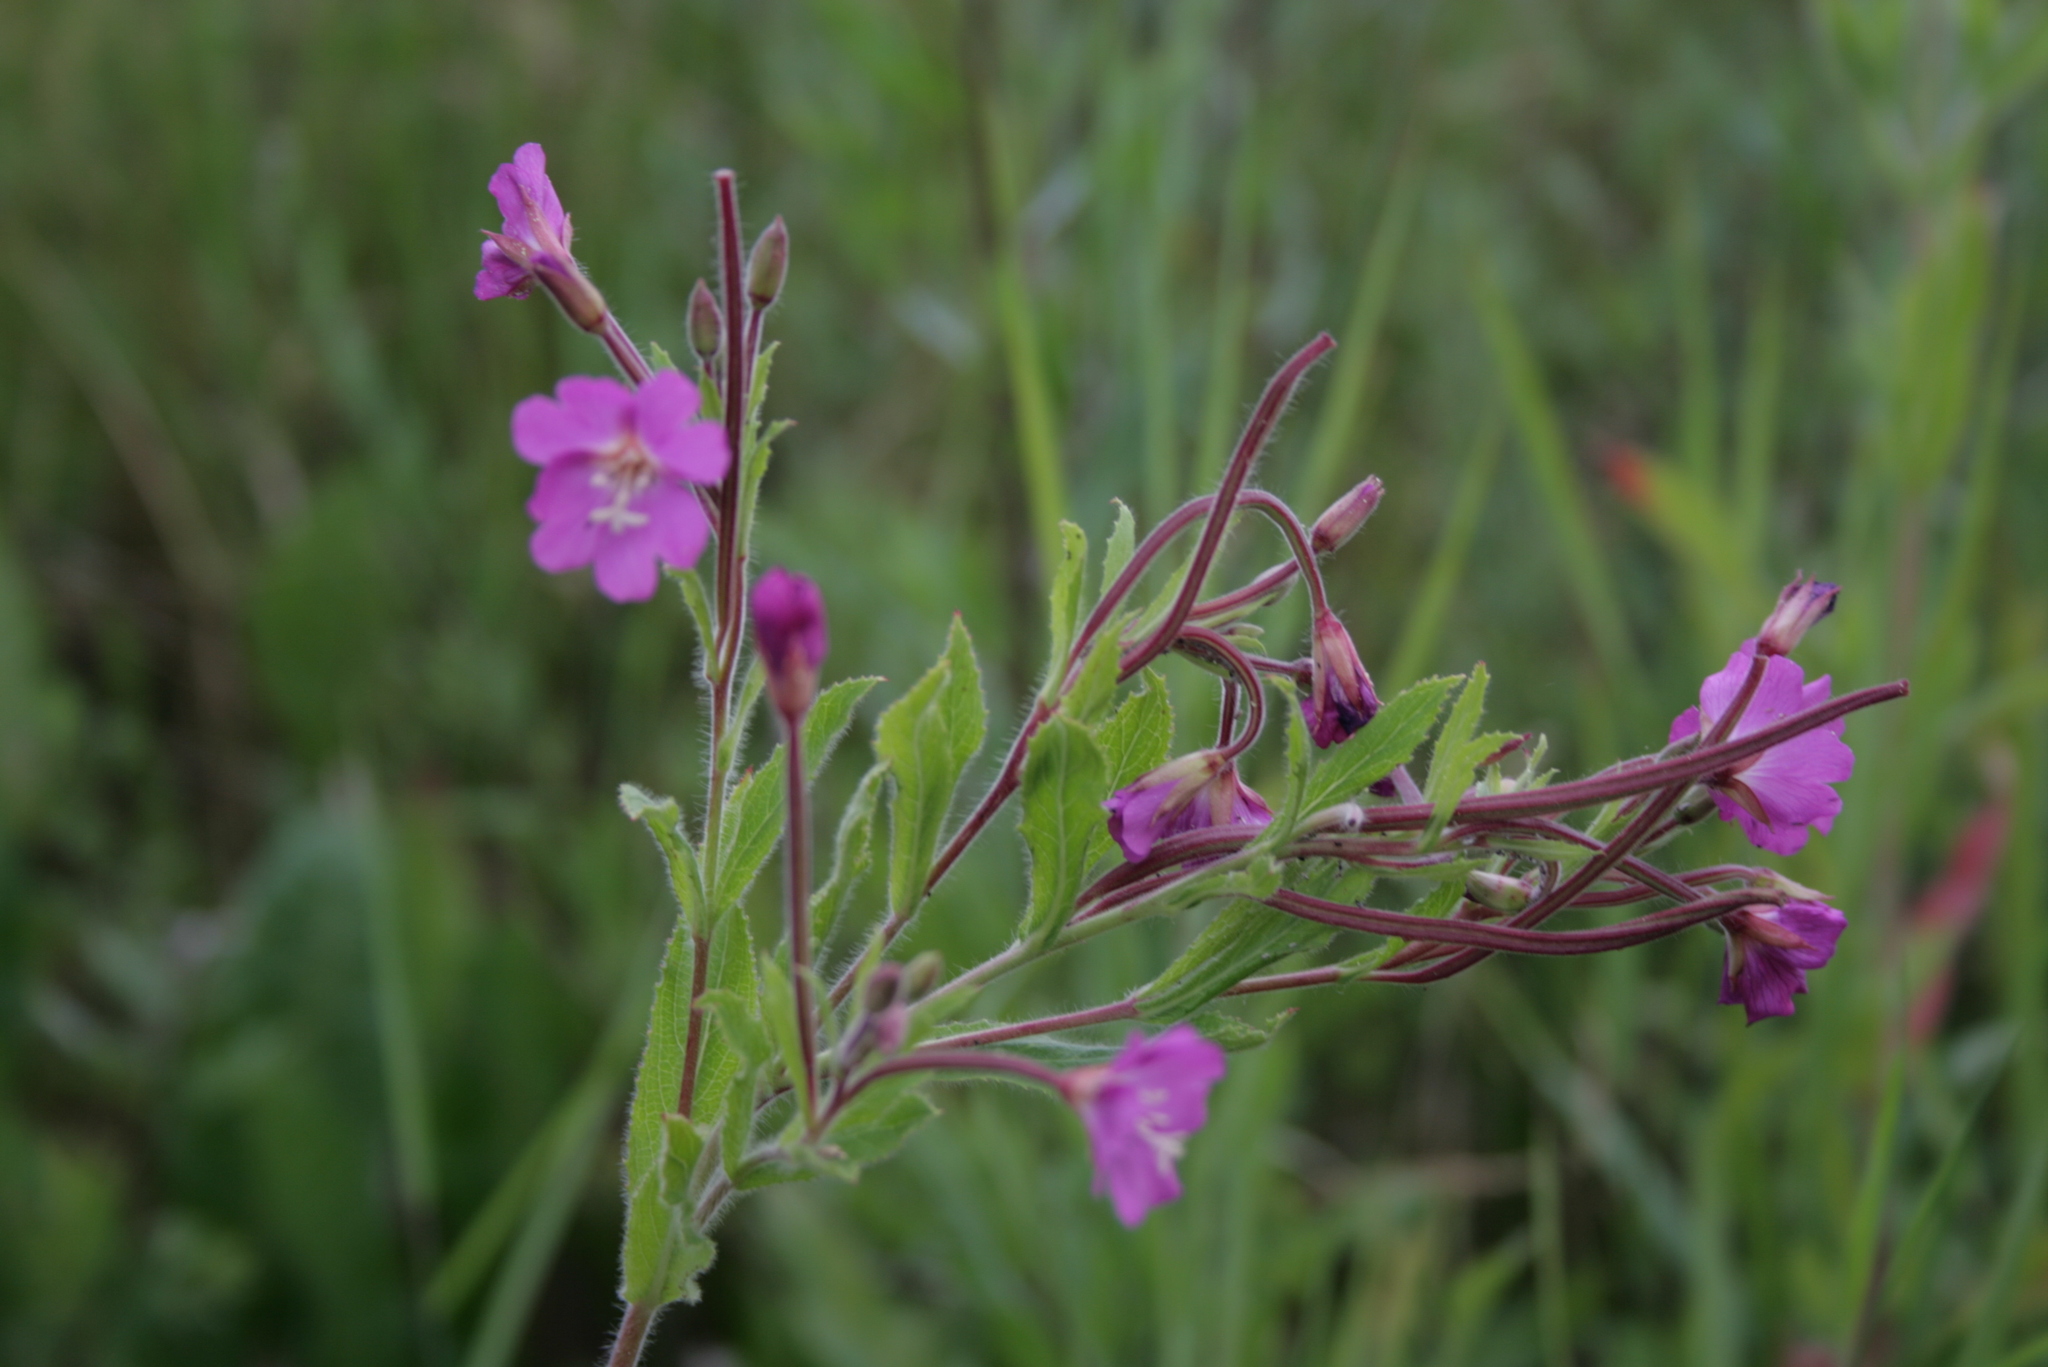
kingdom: Plantae
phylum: Tracheophyta
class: Magnoliopsida
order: Myrtales
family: Onagraceae
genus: Epilobium
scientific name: Epilobium hirsutum
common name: Great willowherb
